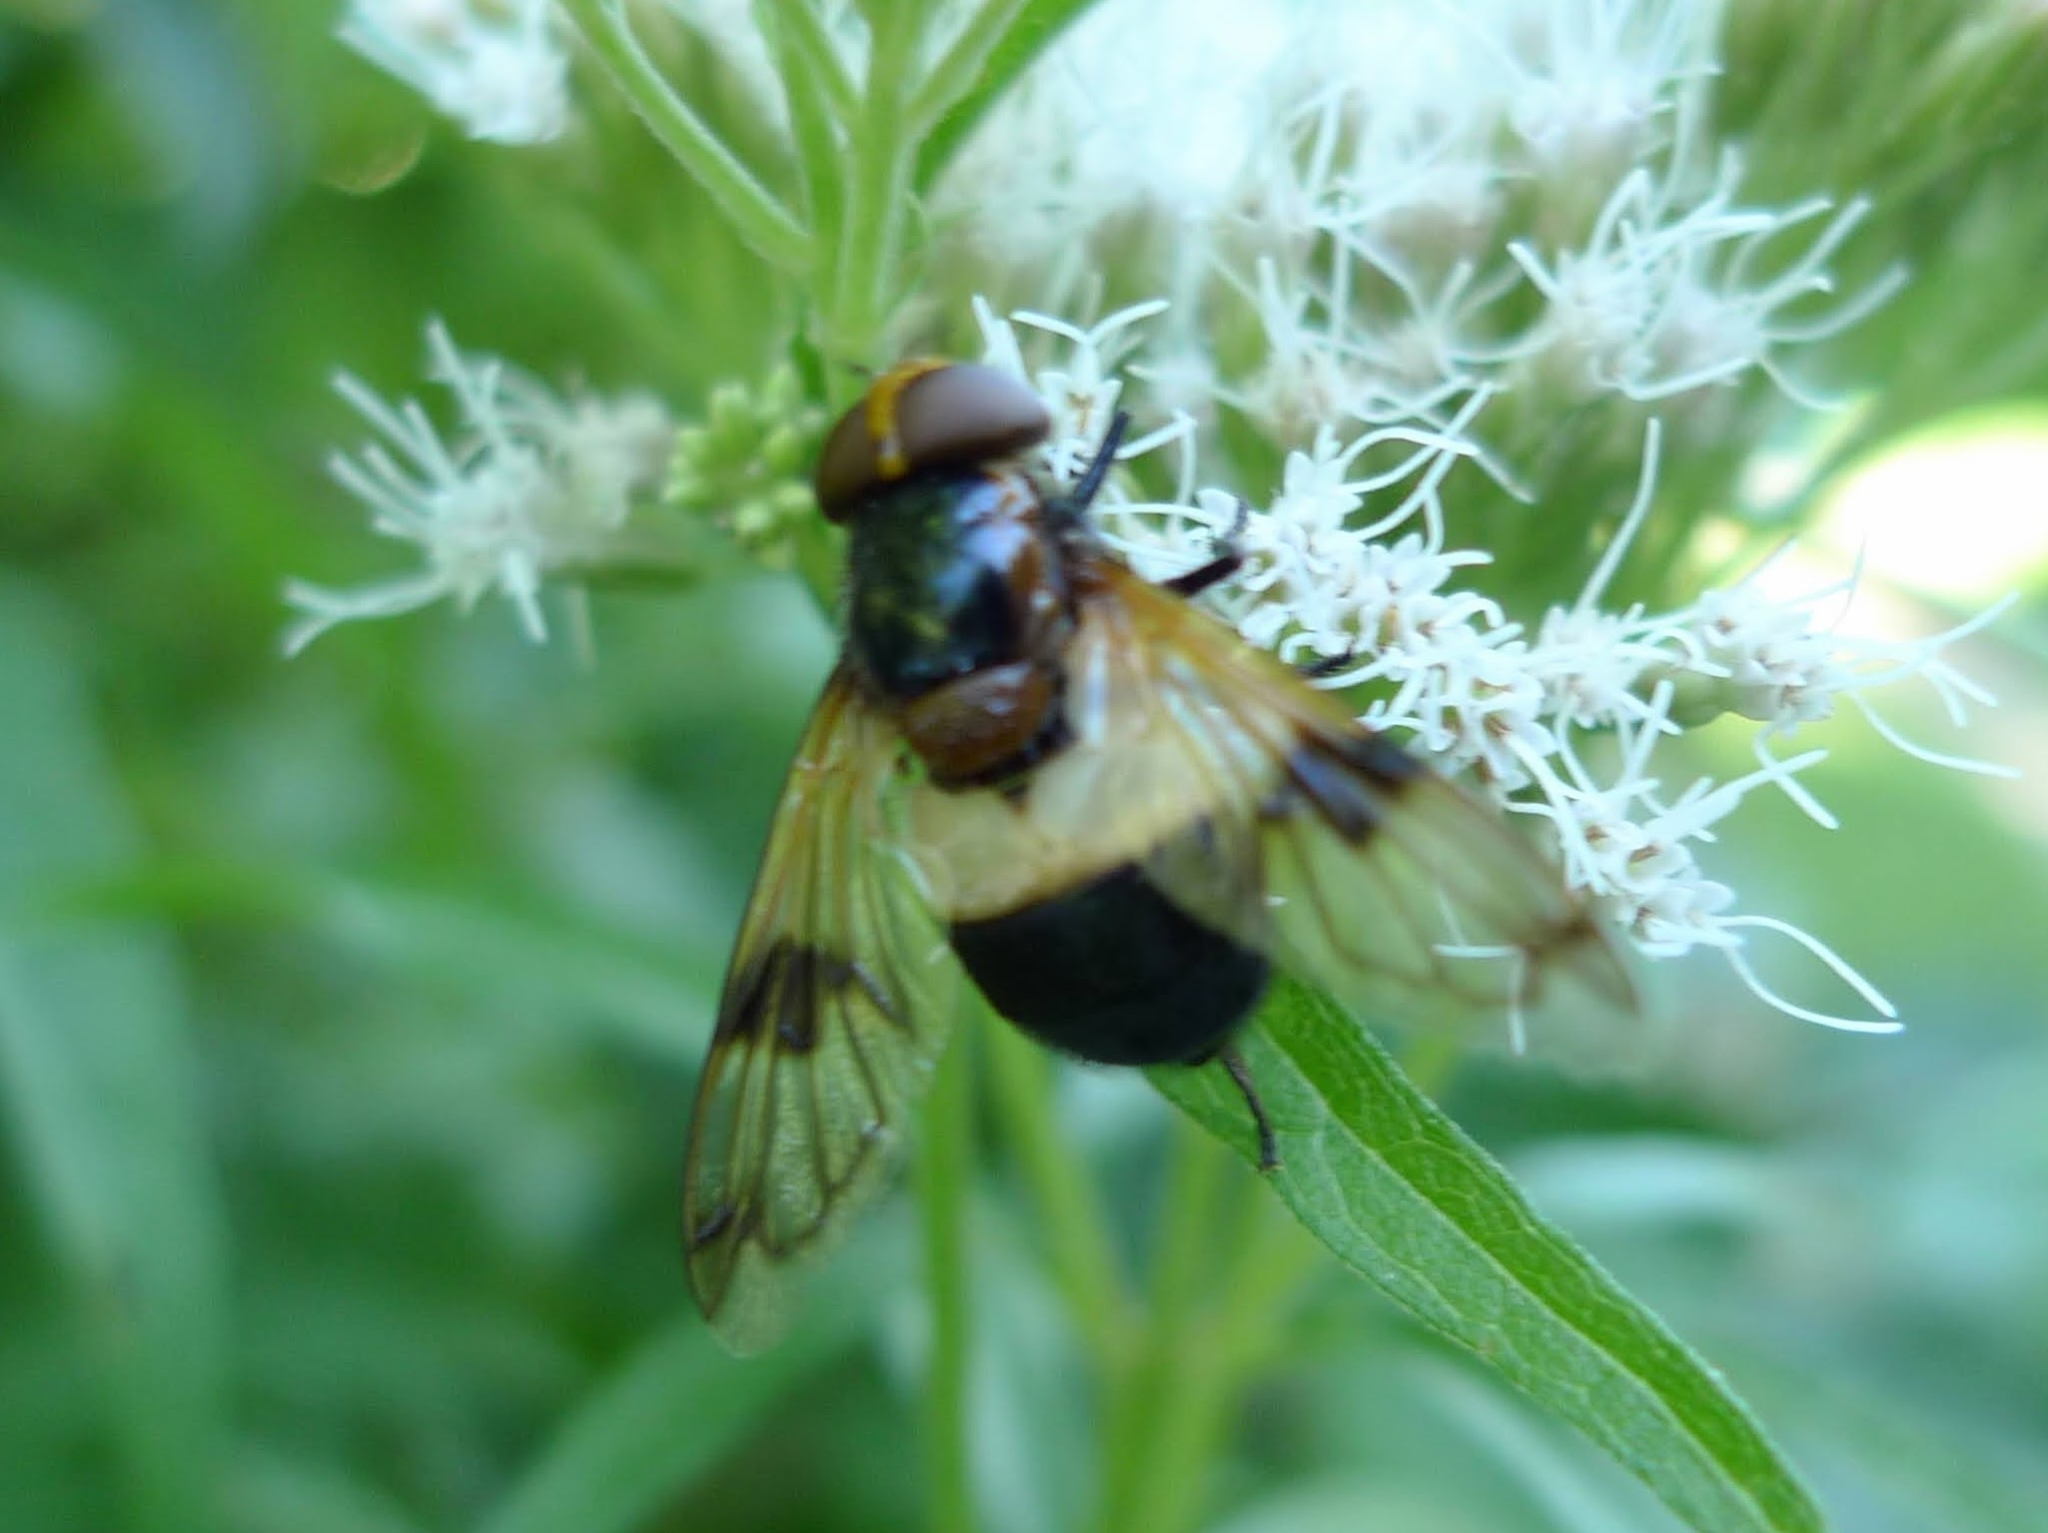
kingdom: Animalia
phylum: Arthropoda
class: Insecta
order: Diptera
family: Syrphidae
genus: Volucella
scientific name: Volucella pellucens
